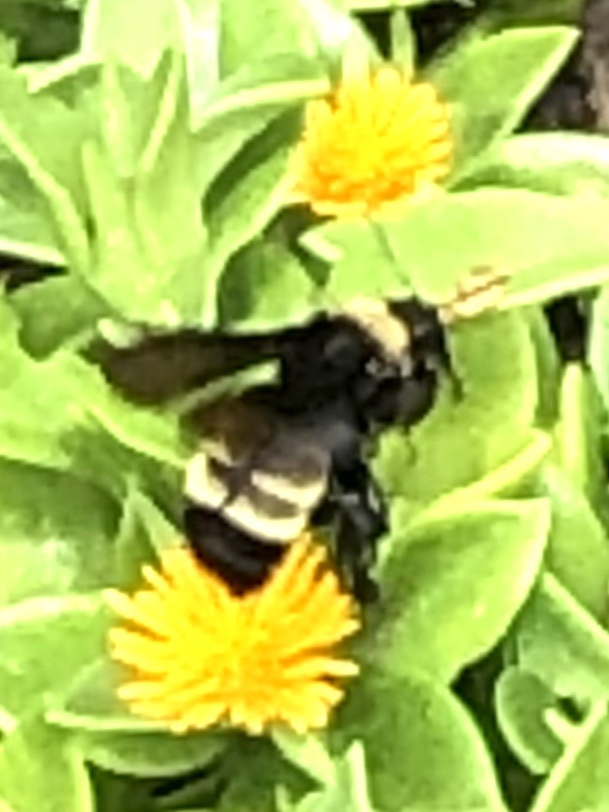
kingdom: Animalia
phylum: Arthropoda
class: Insecta
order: Hymenoptera
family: Apidae
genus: Bombus
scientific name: Bombus pensylvanicus
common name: Bumble bee
